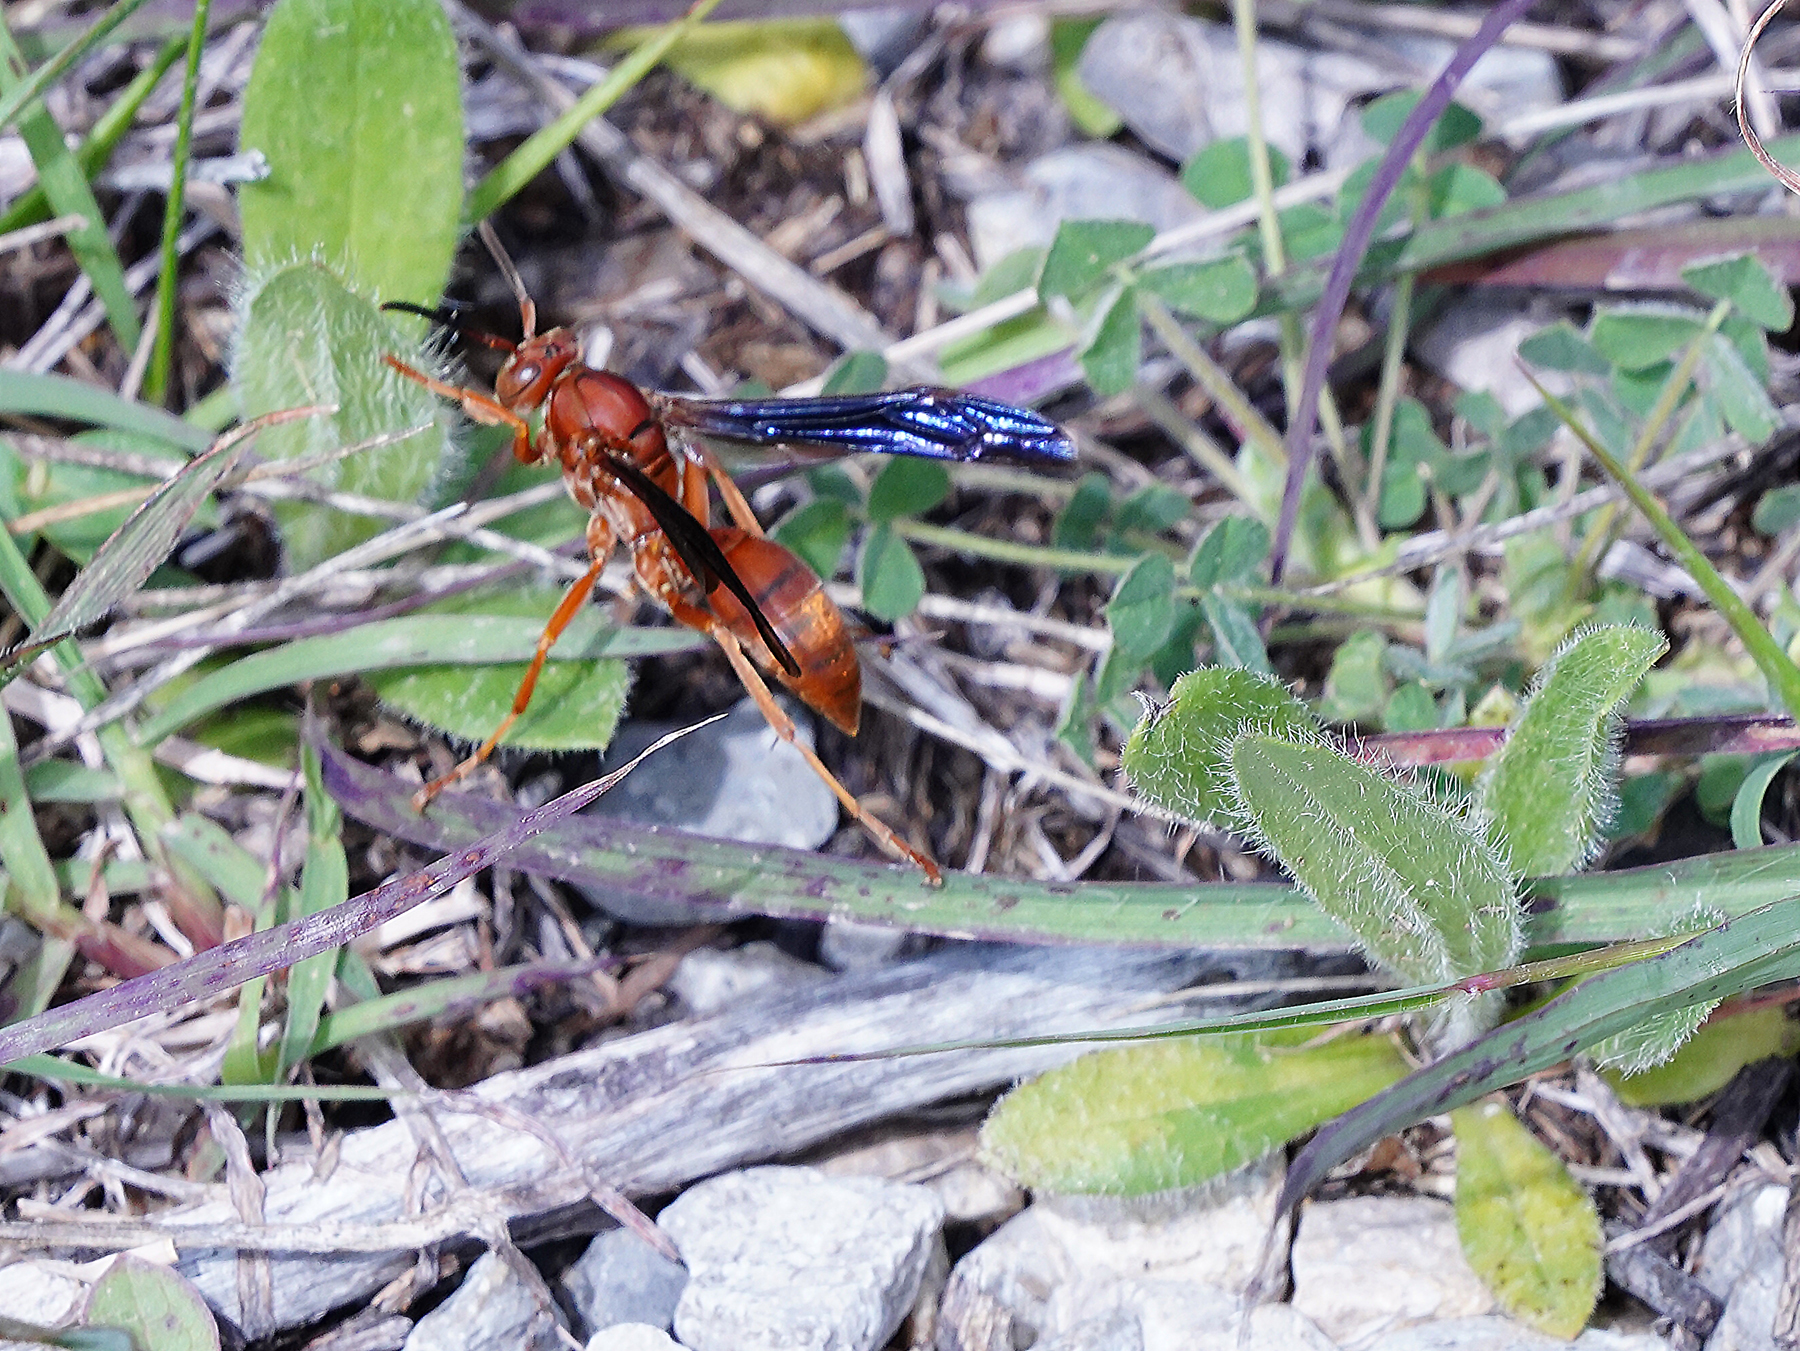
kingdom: Animalia
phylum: Arthropoda
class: Insecta
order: Hymenoptera
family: Eumenidae
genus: Polistes
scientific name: Polistes carolina
